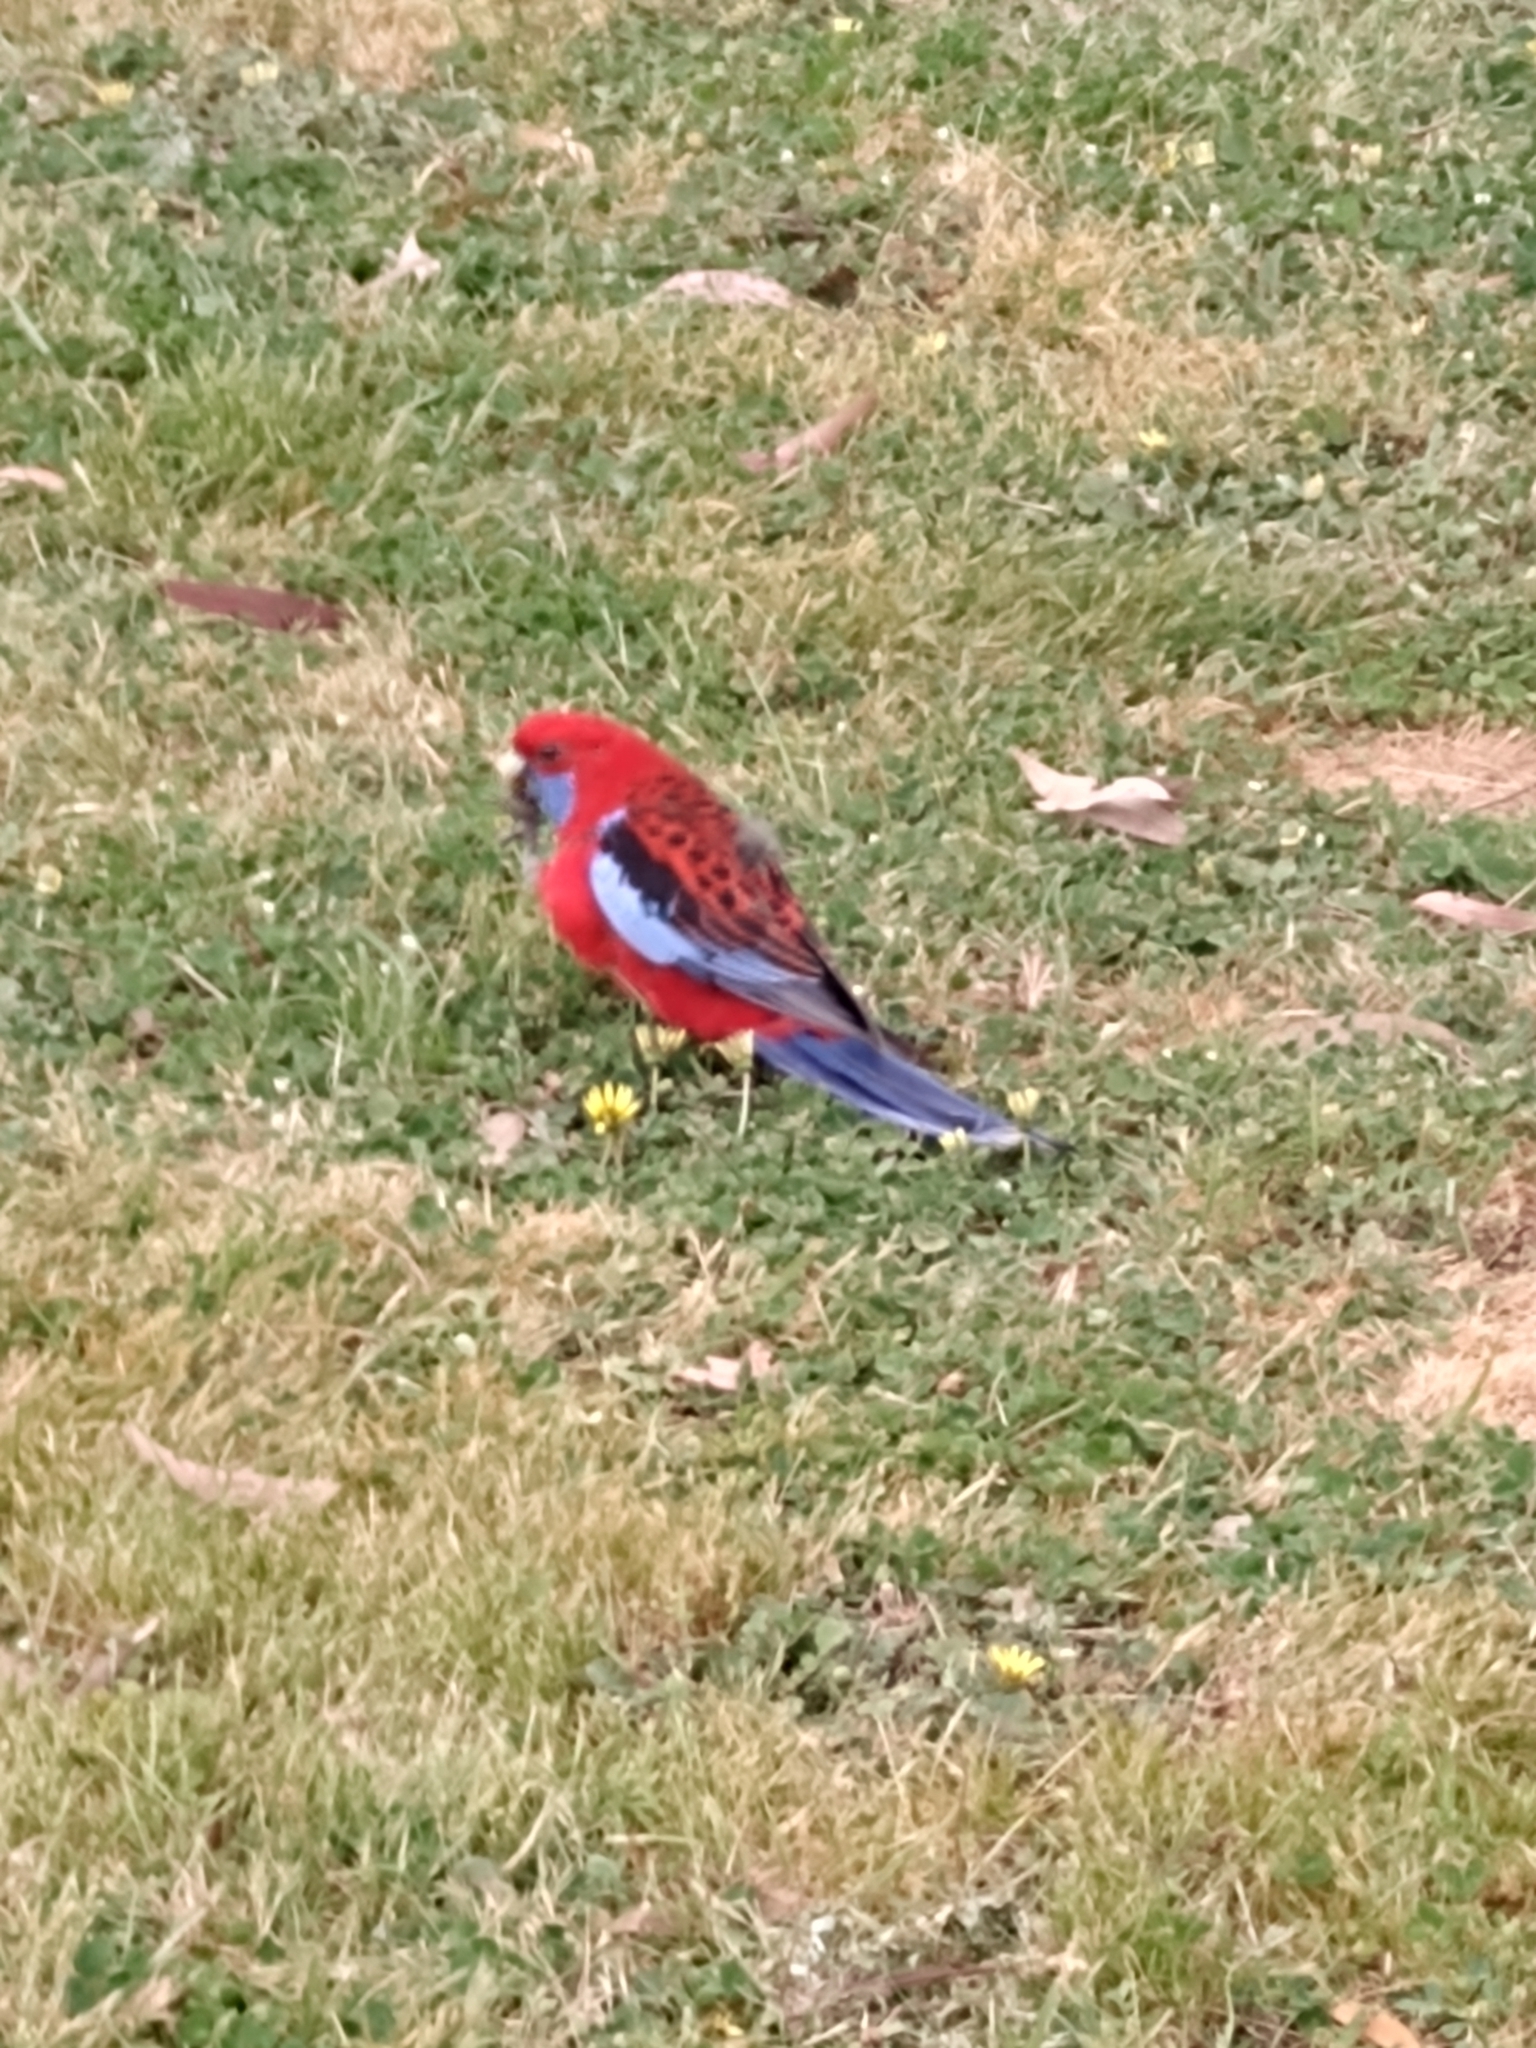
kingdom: Animalia
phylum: Chordata
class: Aves
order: Psittaciformes
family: Psittacidae
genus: Platycercus
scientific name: Platycercus elegans
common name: Crimson rosella
